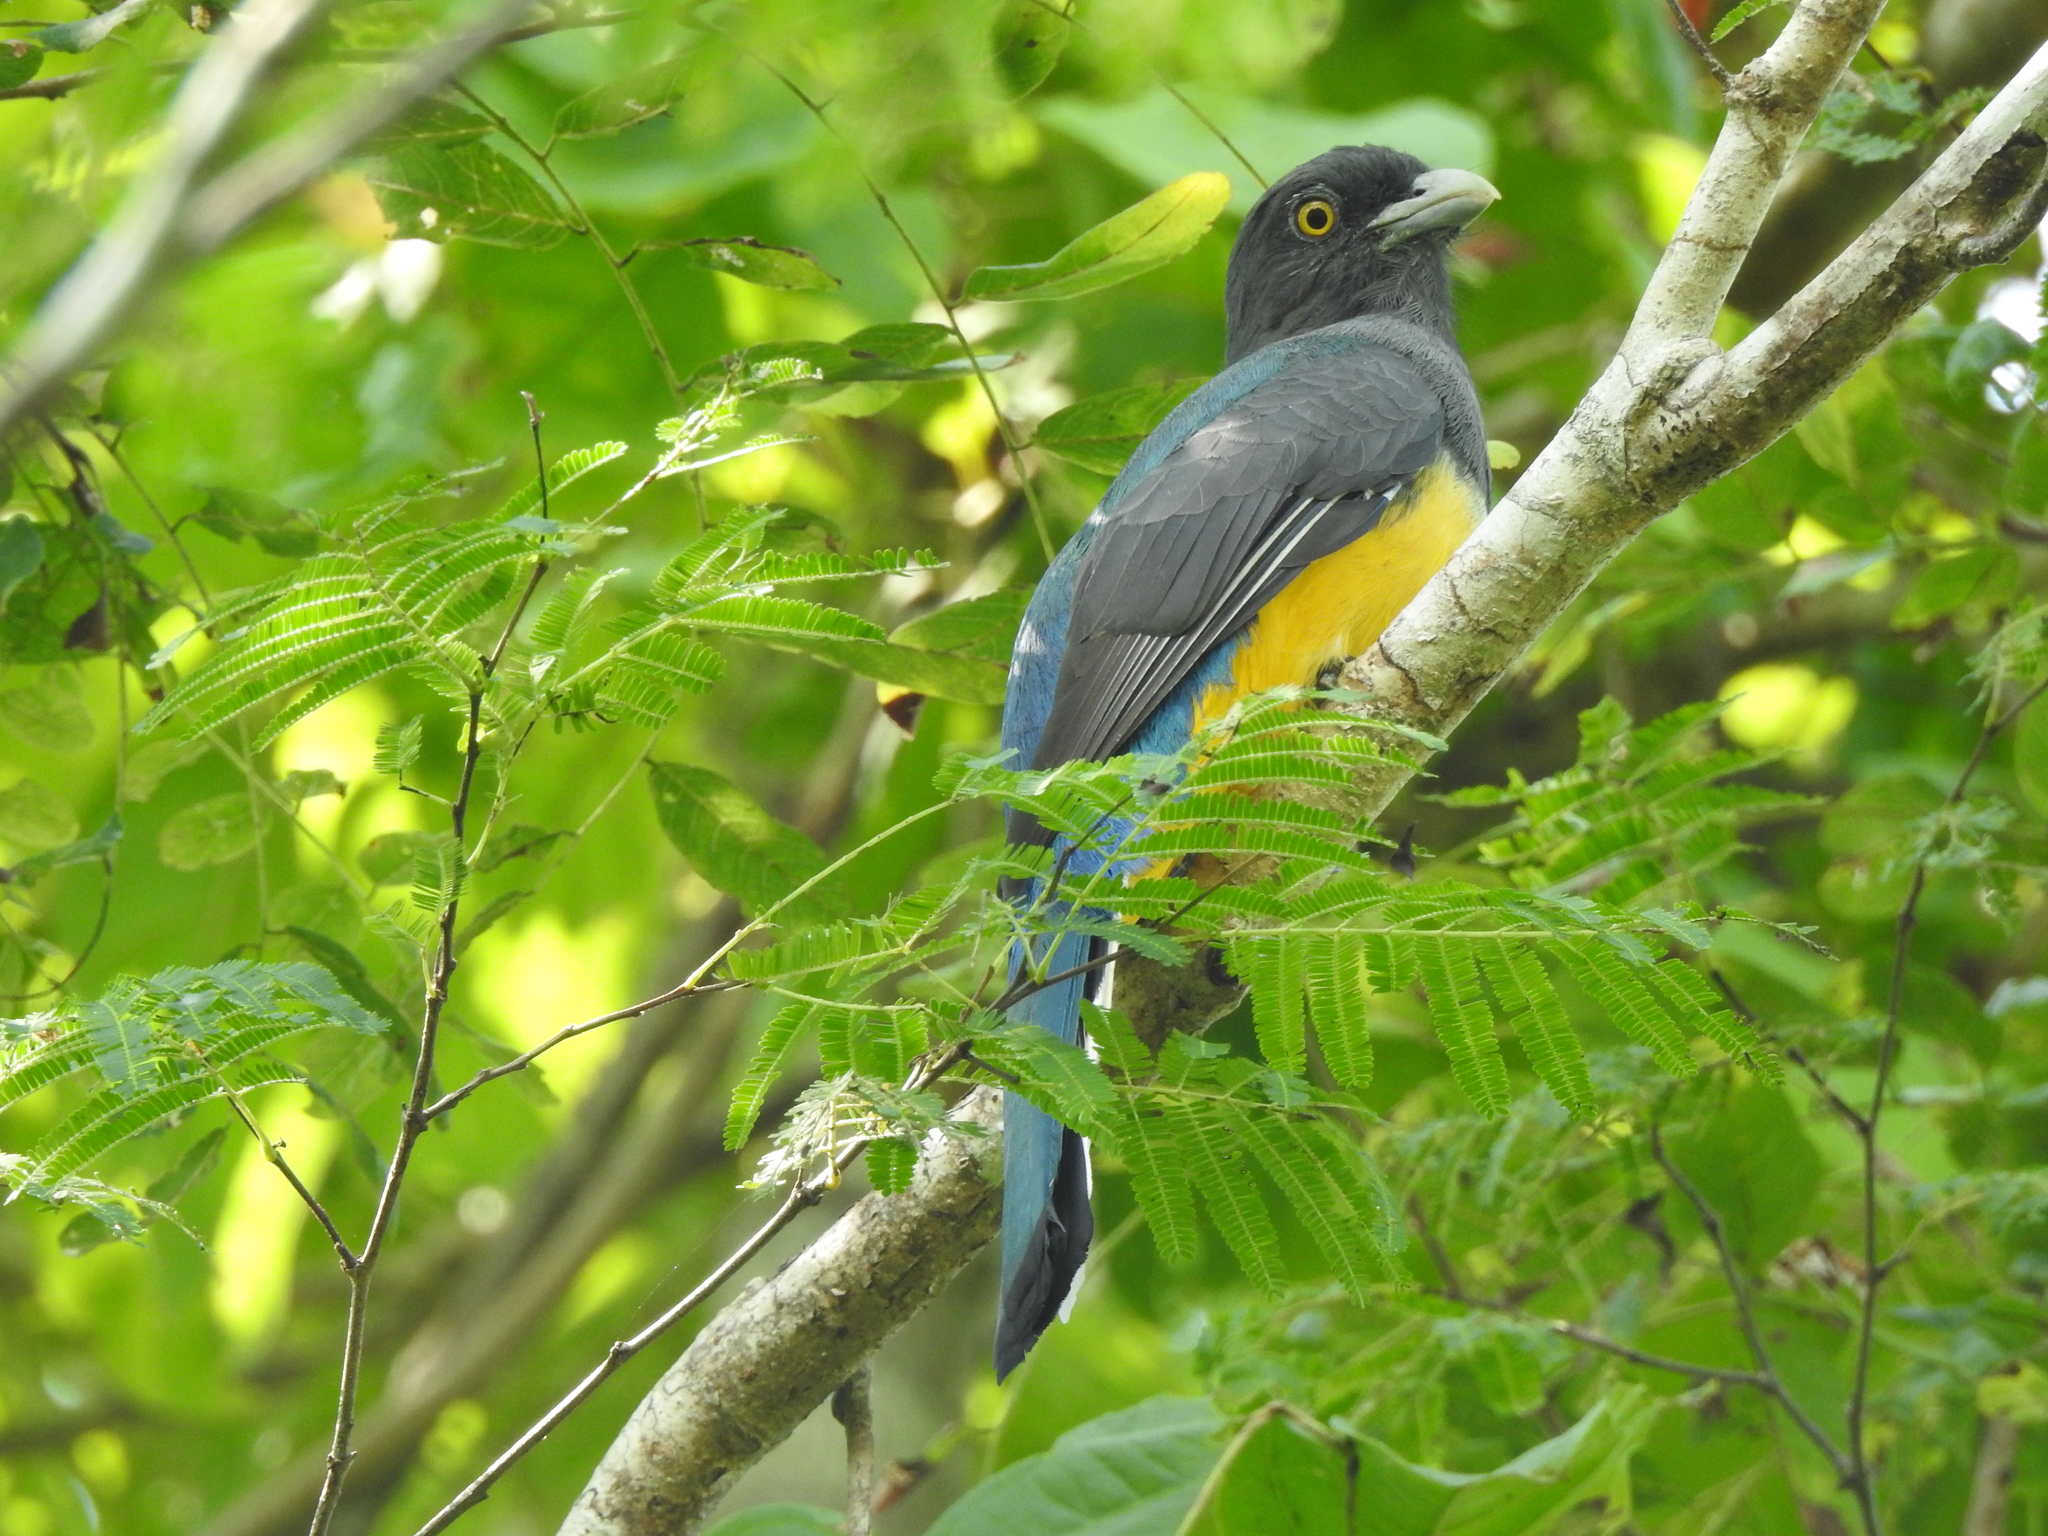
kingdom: Animalia
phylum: Chordata
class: Aves
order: Trogoniformes
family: Trogonidae
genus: Trogon
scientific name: Trogon citreolus
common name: Citreoline trogon
